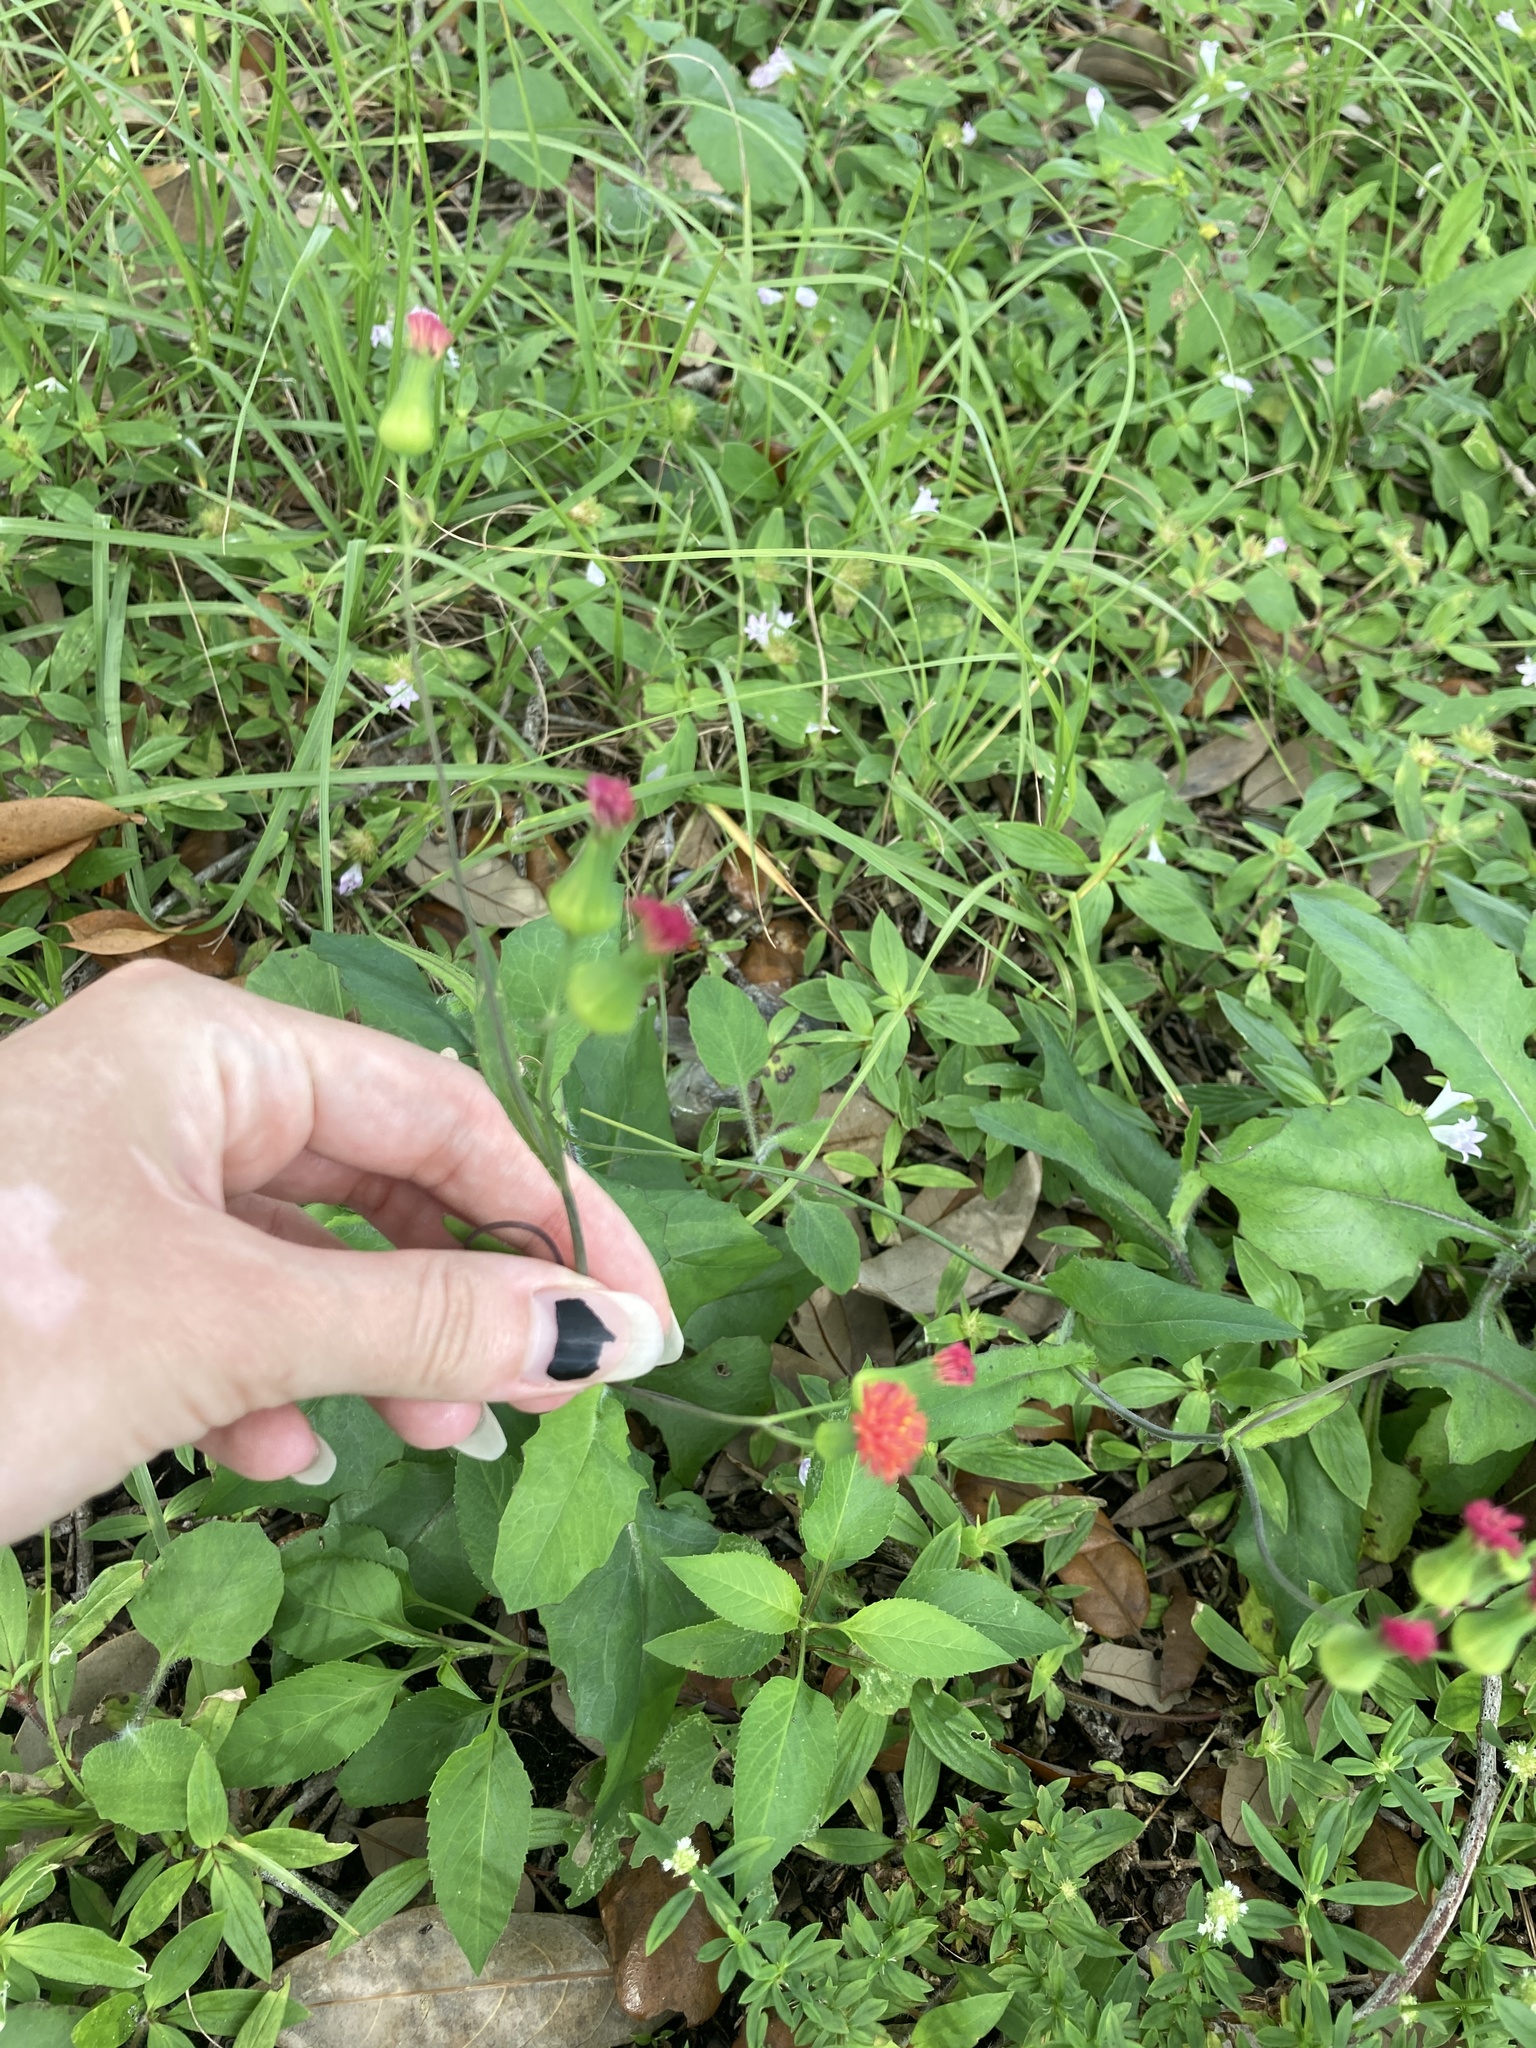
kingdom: Plantae
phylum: Tracheophyta
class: Magnoliopsida
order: Asterales
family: Asteraceae
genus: Emilia
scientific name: Emilia fosbergii
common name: Florida tasselflower
